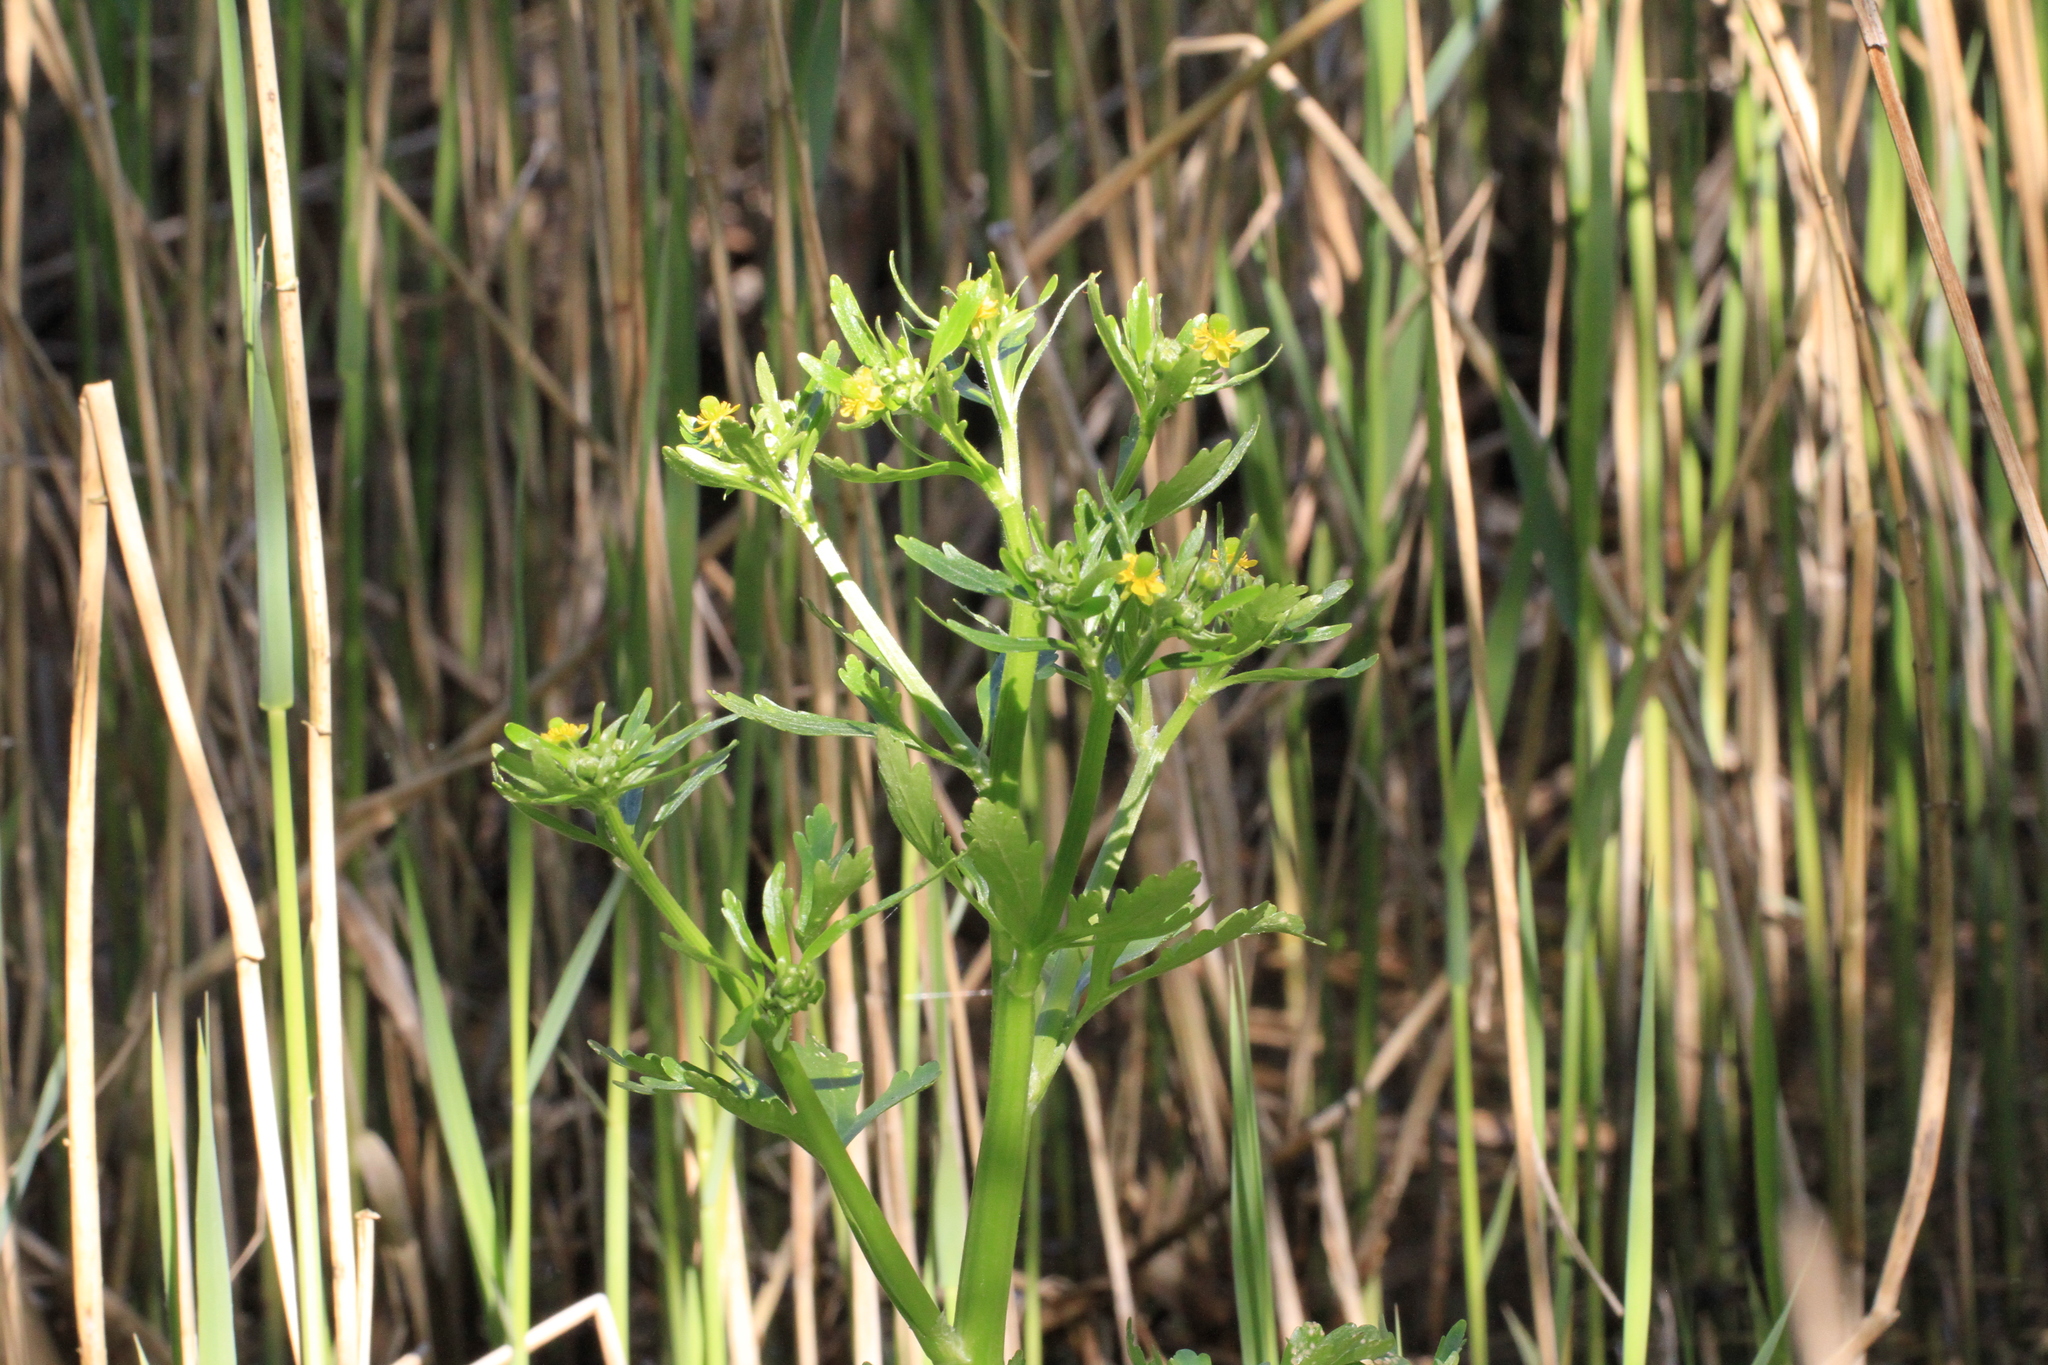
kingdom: Plantae
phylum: Tracheophyta
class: Magnoliopsida
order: Ranunculales
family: Ranunculaceae
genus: Ranunculus
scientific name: Ranunculus sceleratus
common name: Celery-leaved buttercup
